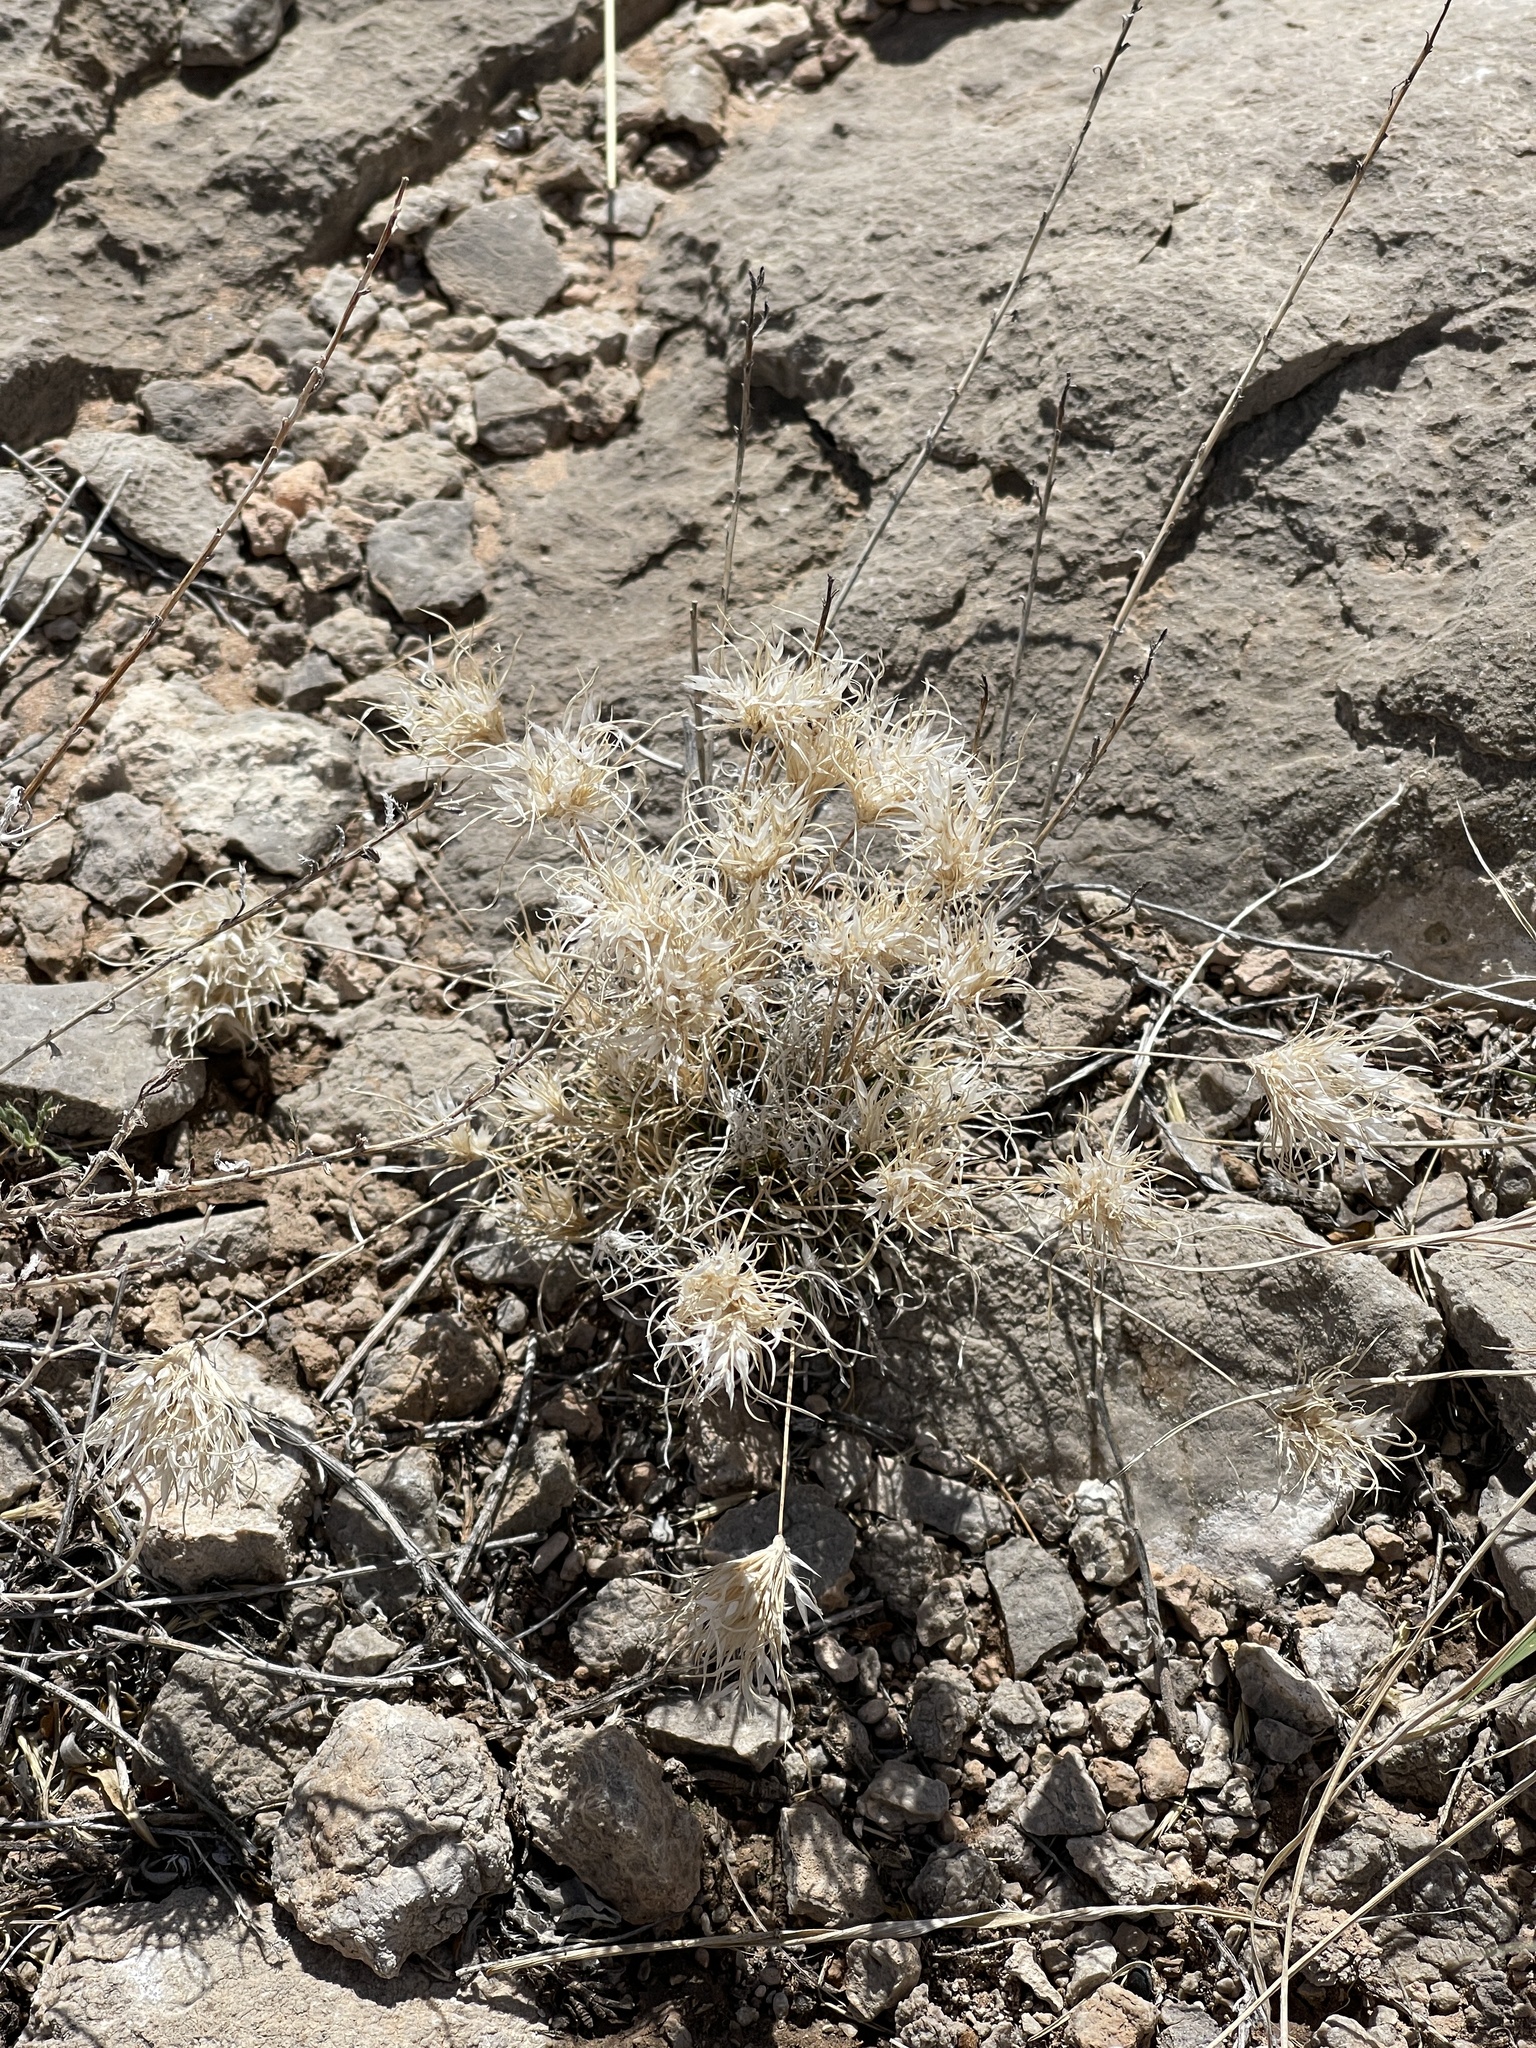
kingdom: Plantae
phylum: Tracheophyta
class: Liliopsida
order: Poales
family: Poaceae
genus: Dasyochloa
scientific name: Dasyochloa pulchella
